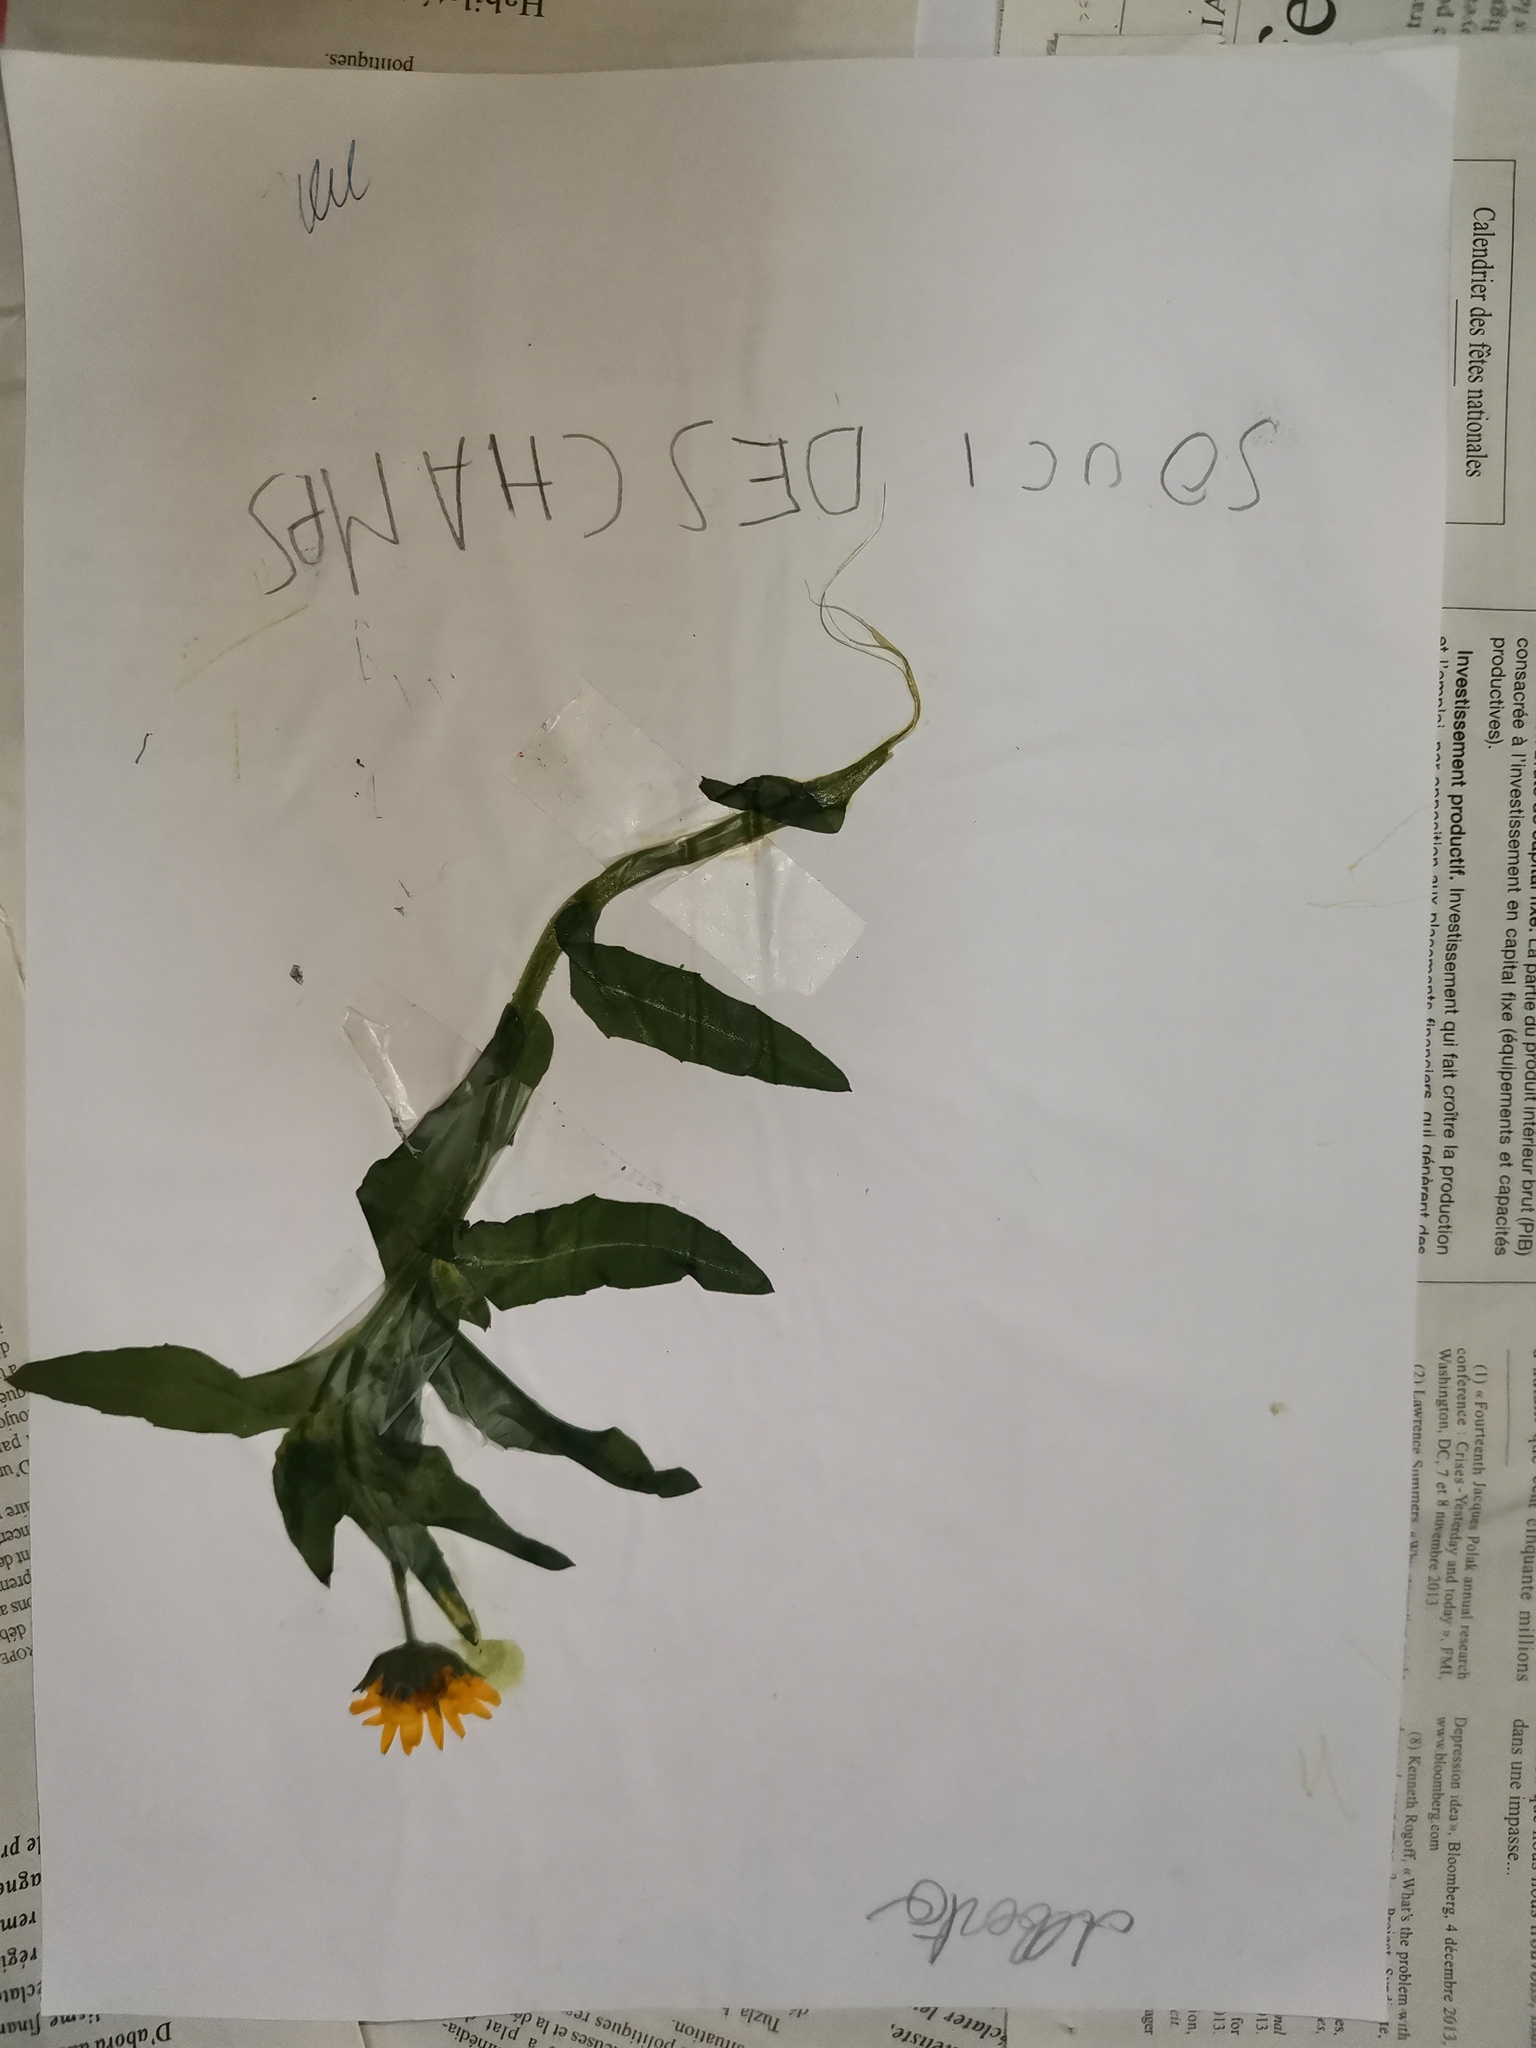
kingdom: Plantae
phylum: Tracheophyta
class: Magnoliopsida
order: Asterales
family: Asteraceae
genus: Calendula
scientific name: Calendula arvensis
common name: Field marigold
